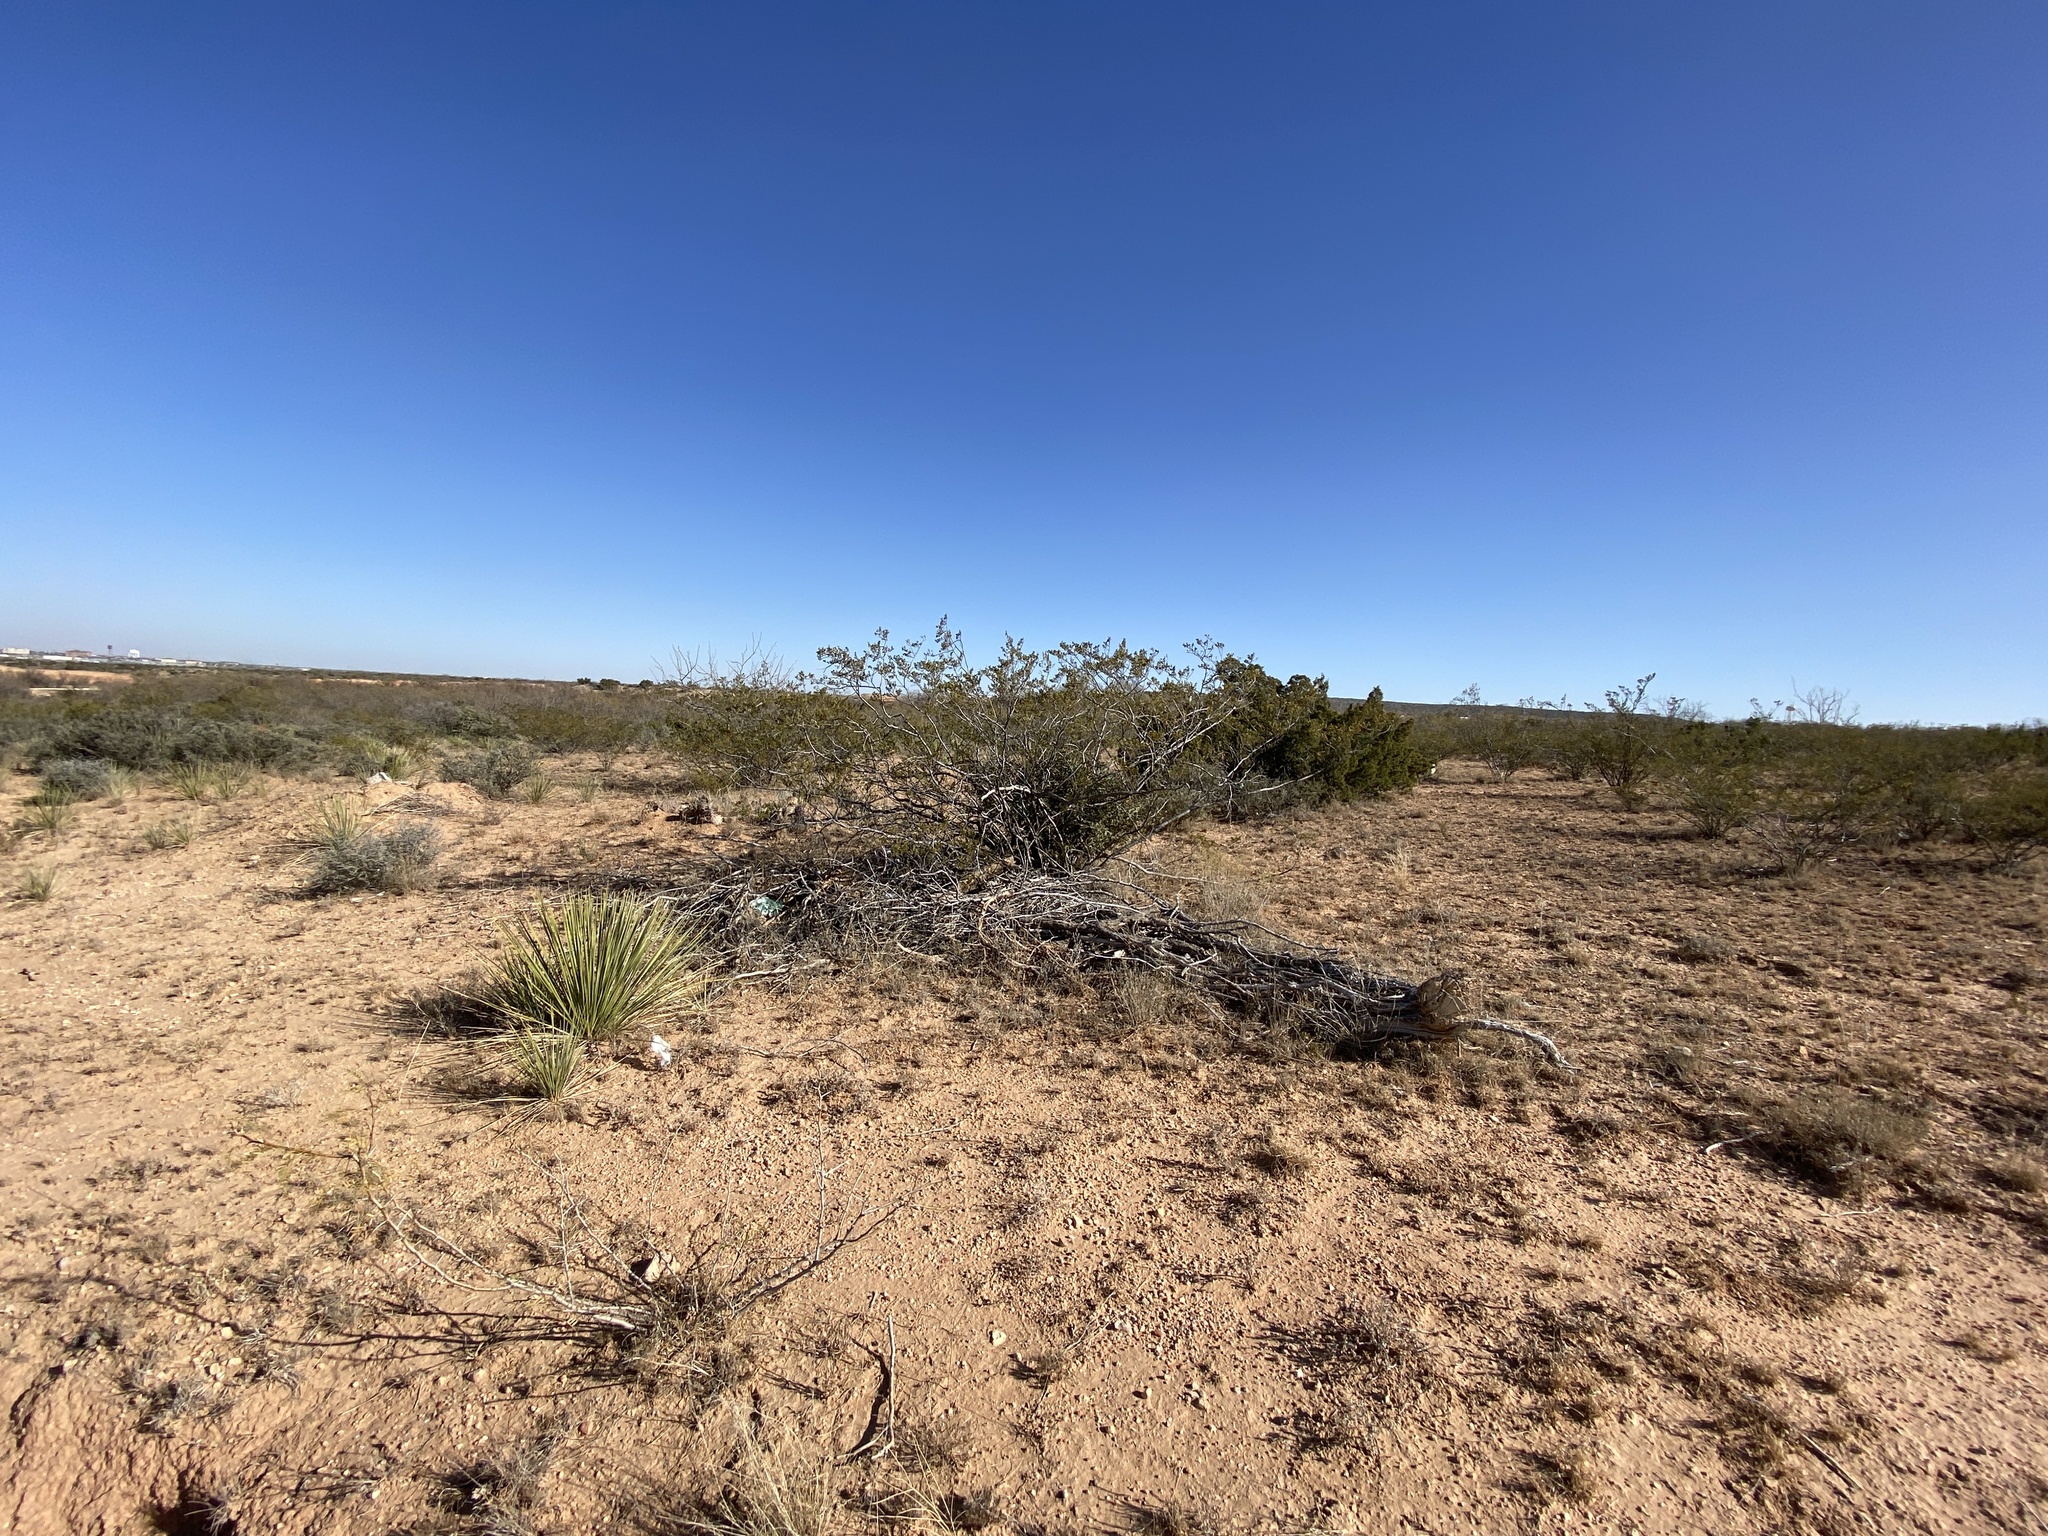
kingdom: Plantae
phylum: Tracheophyta
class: Magnoliopsida
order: Zygophyllales
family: Zygophyllaceae
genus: Larrea
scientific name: Larrea tridentata
